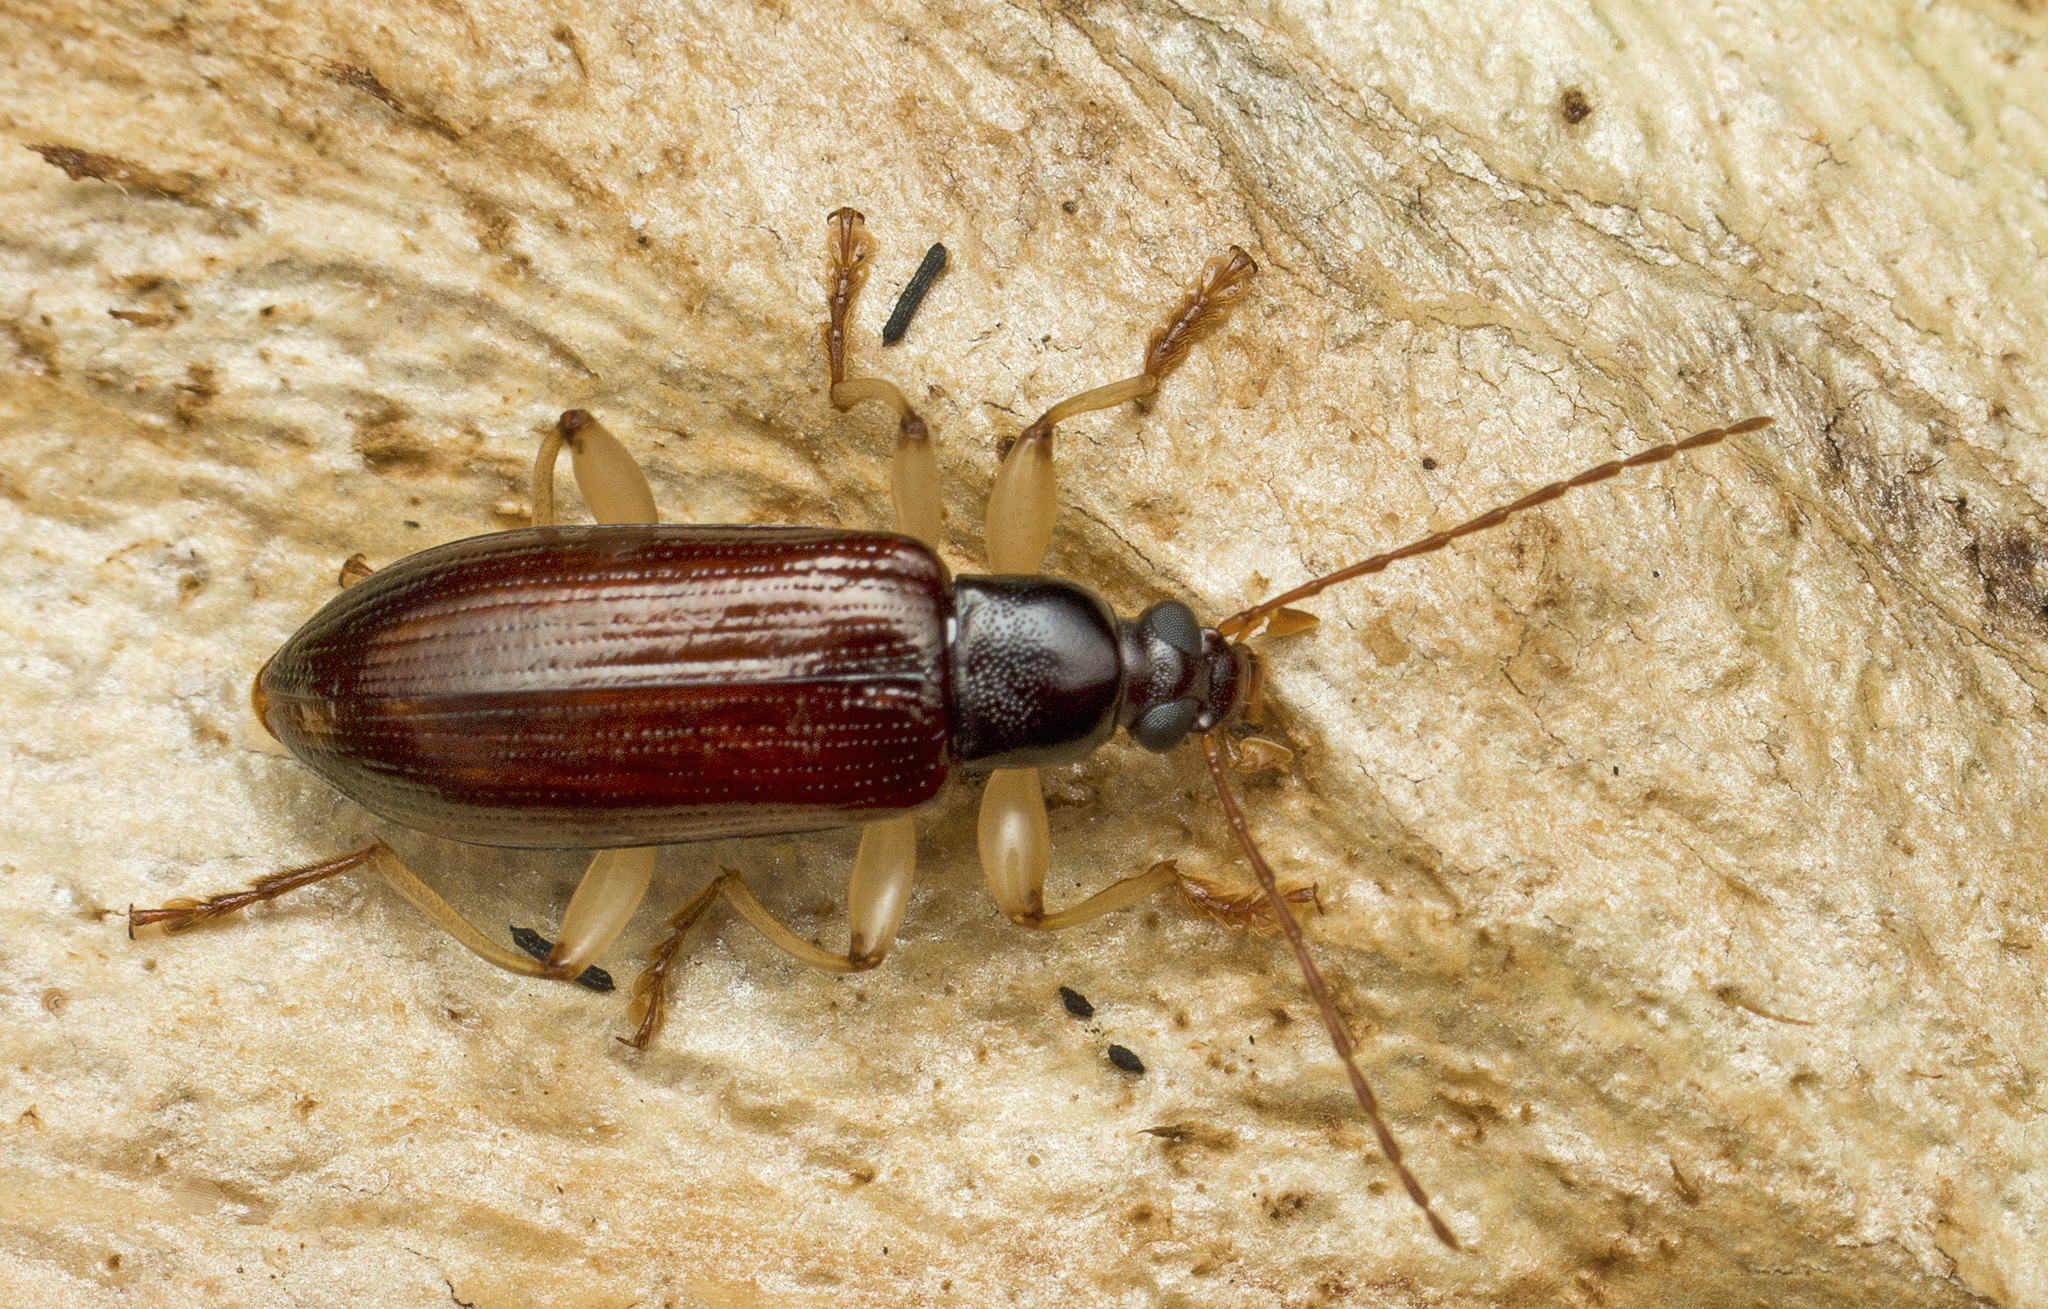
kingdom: Animalia
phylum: Arthropoda
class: Insecta
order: Coleoptera
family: Tenebrionidae
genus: Dimorphochilus
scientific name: Dimorphochilus
